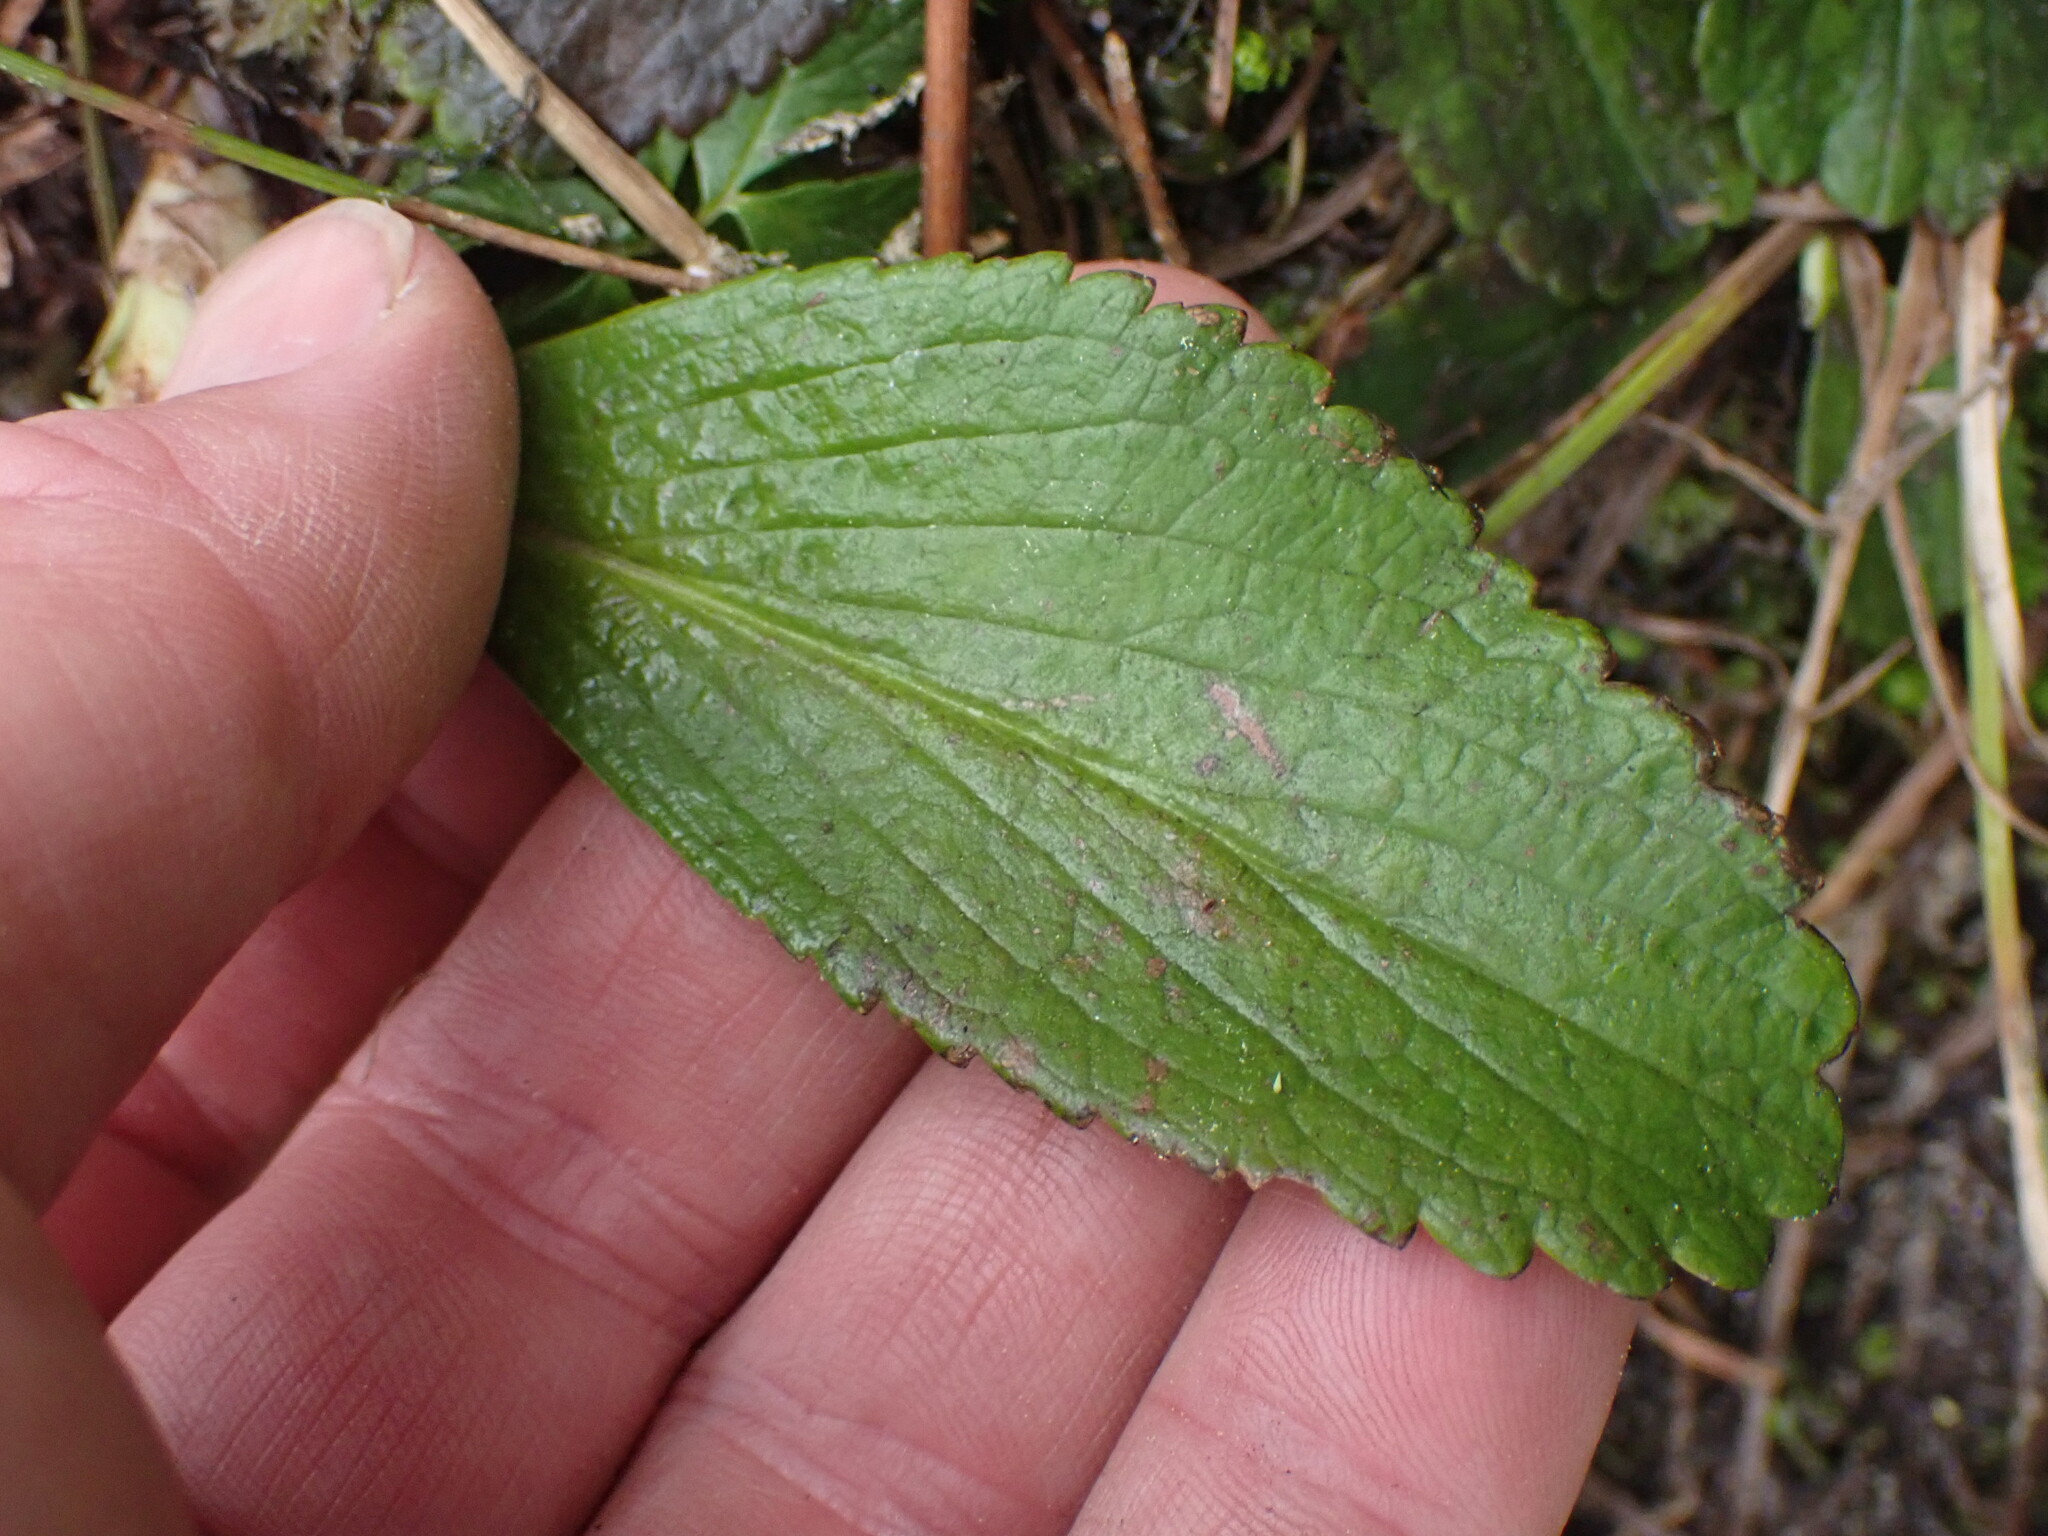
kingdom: Plantae
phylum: Tracheophyta
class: Magnoliopsida
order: Saxifragales
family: Saxifragaceae
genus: Leptarrhena
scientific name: Leptarrhena pyrolifolia
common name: Leatherleaf-saxifrage
